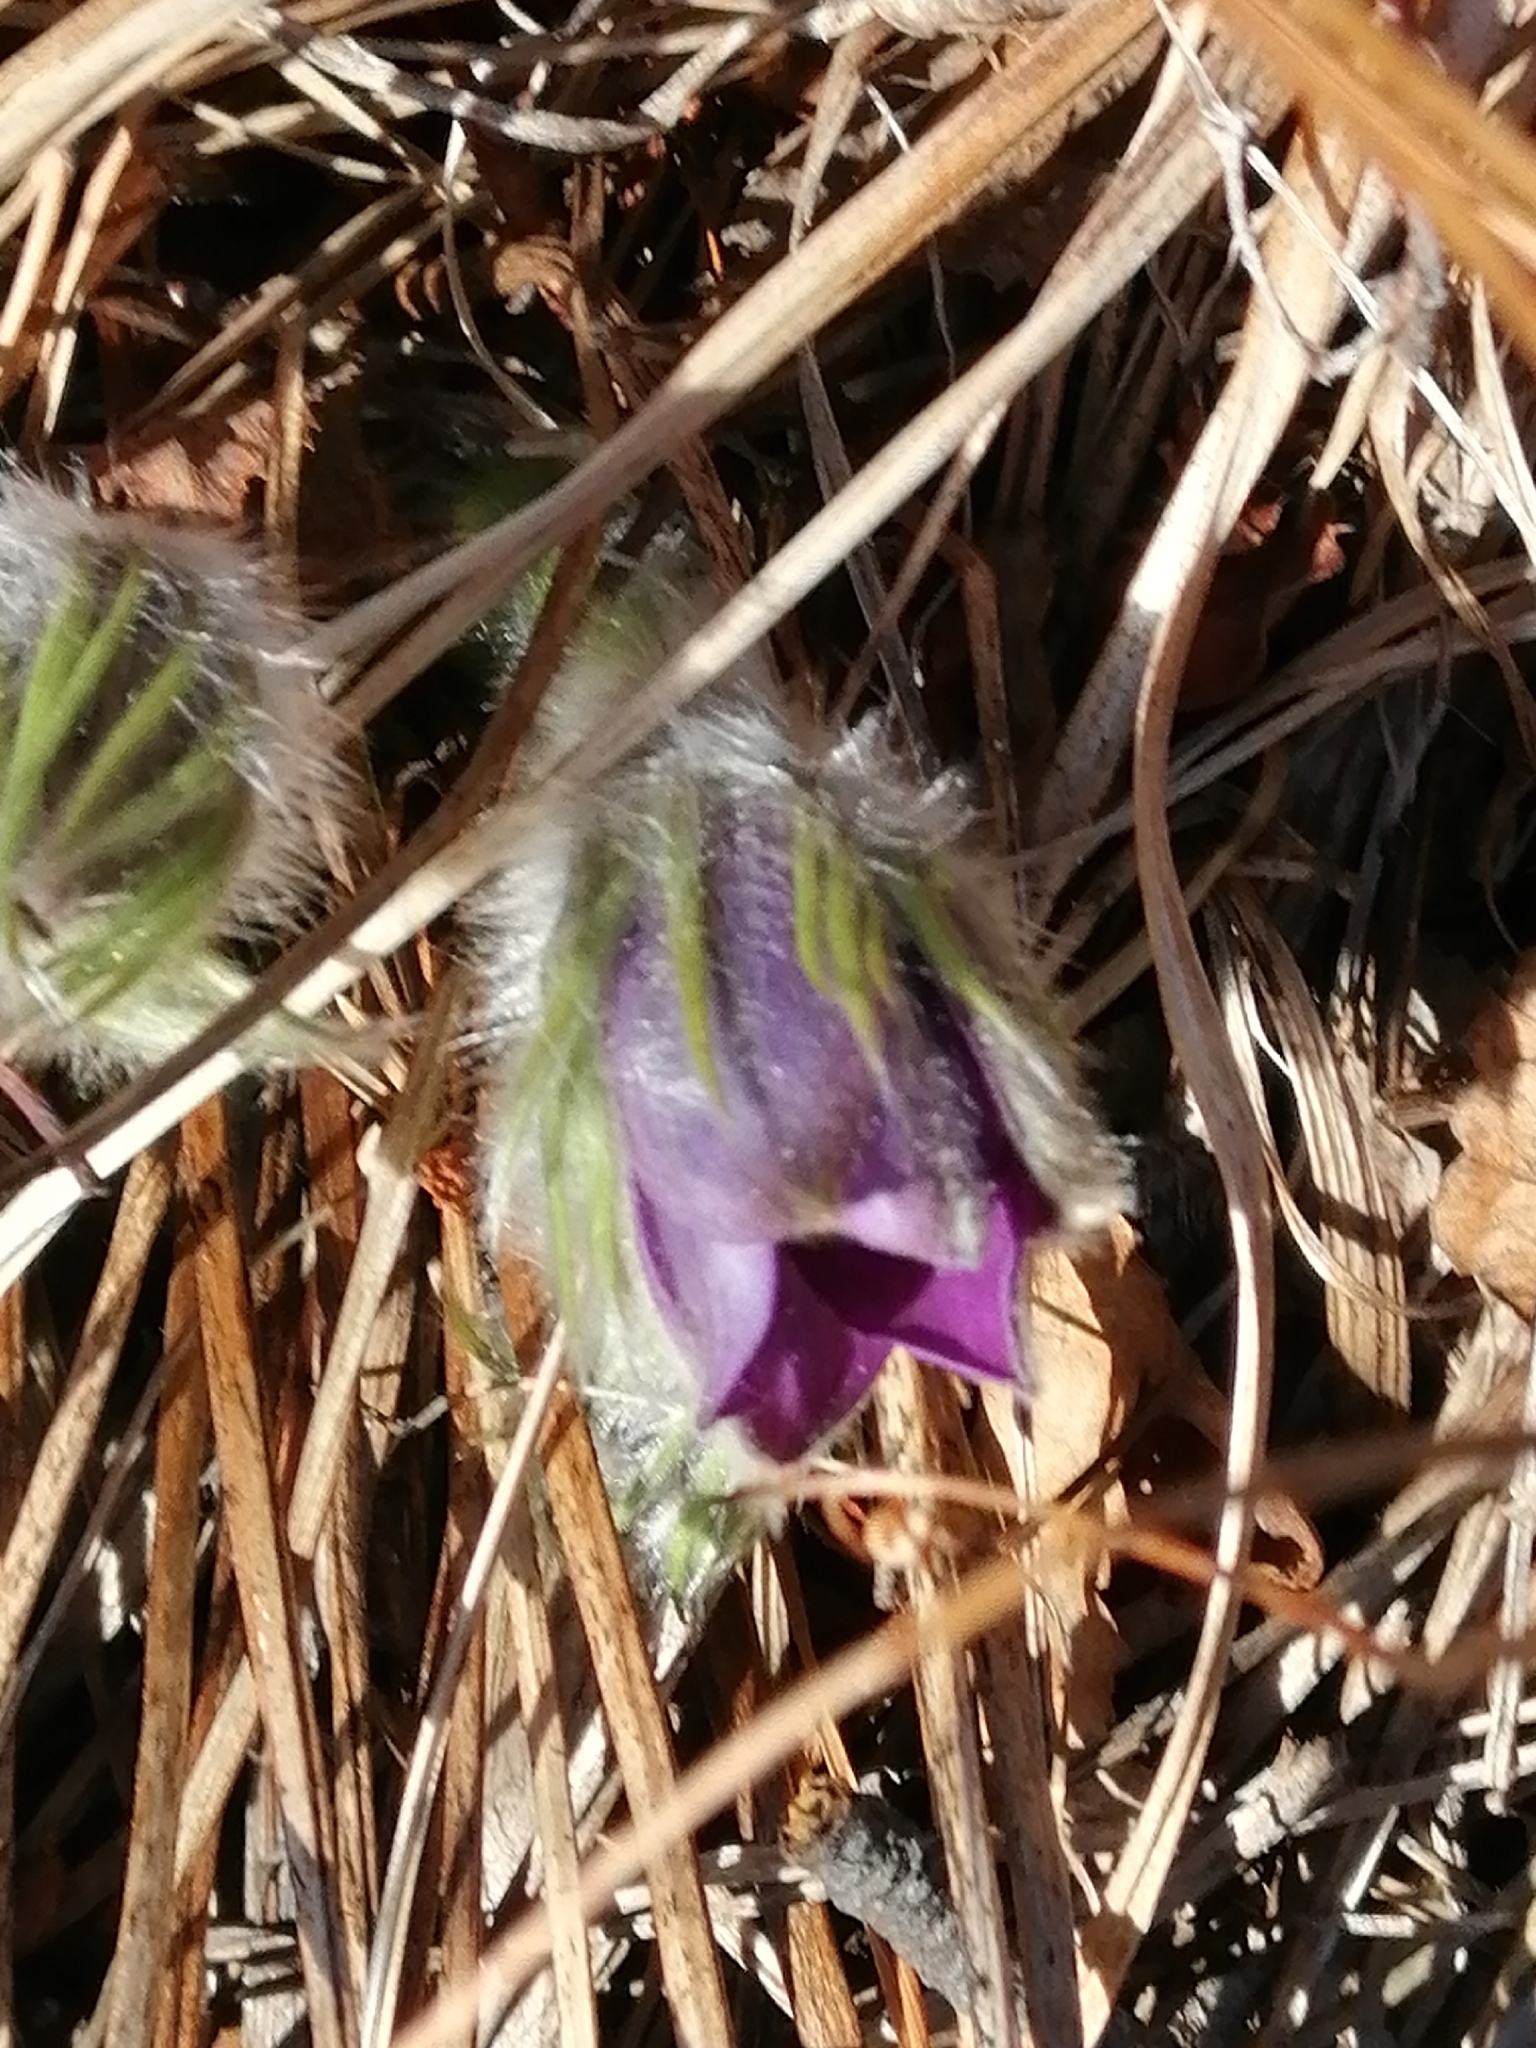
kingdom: Plantae
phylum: Tracheophyta
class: Magnoliopsida
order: Ranunculales
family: Ranunculaceae
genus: Pulsatilla
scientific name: Pulsatilla patens
